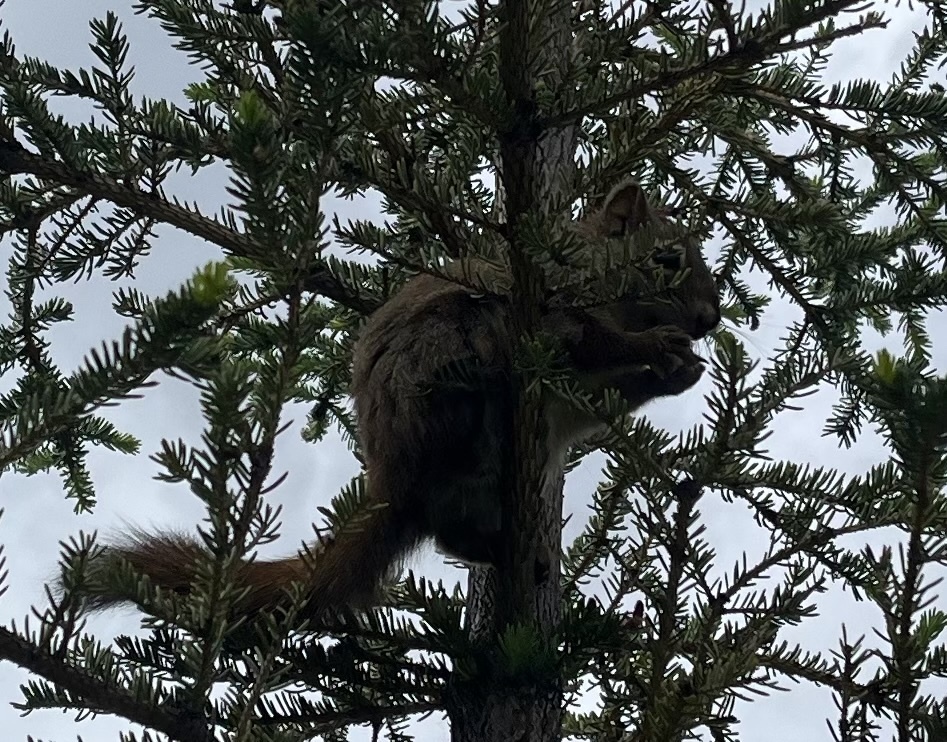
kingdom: Animalia
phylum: Chordata
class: Mammalia
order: Rodentia
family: Sciuridae
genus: Tamiasciurus
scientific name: Tamiasciurus hudsonicus
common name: Red squirrel
